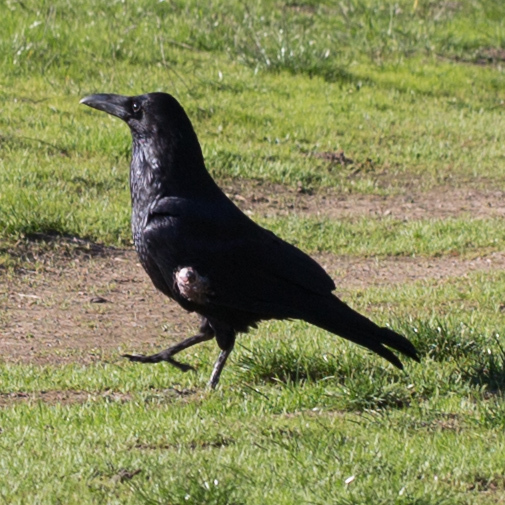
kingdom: Animalia
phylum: Chordata
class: Aves
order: Passeriformes
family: Corvidae
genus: Corvus
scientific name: Corvus corax
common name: Common raven
